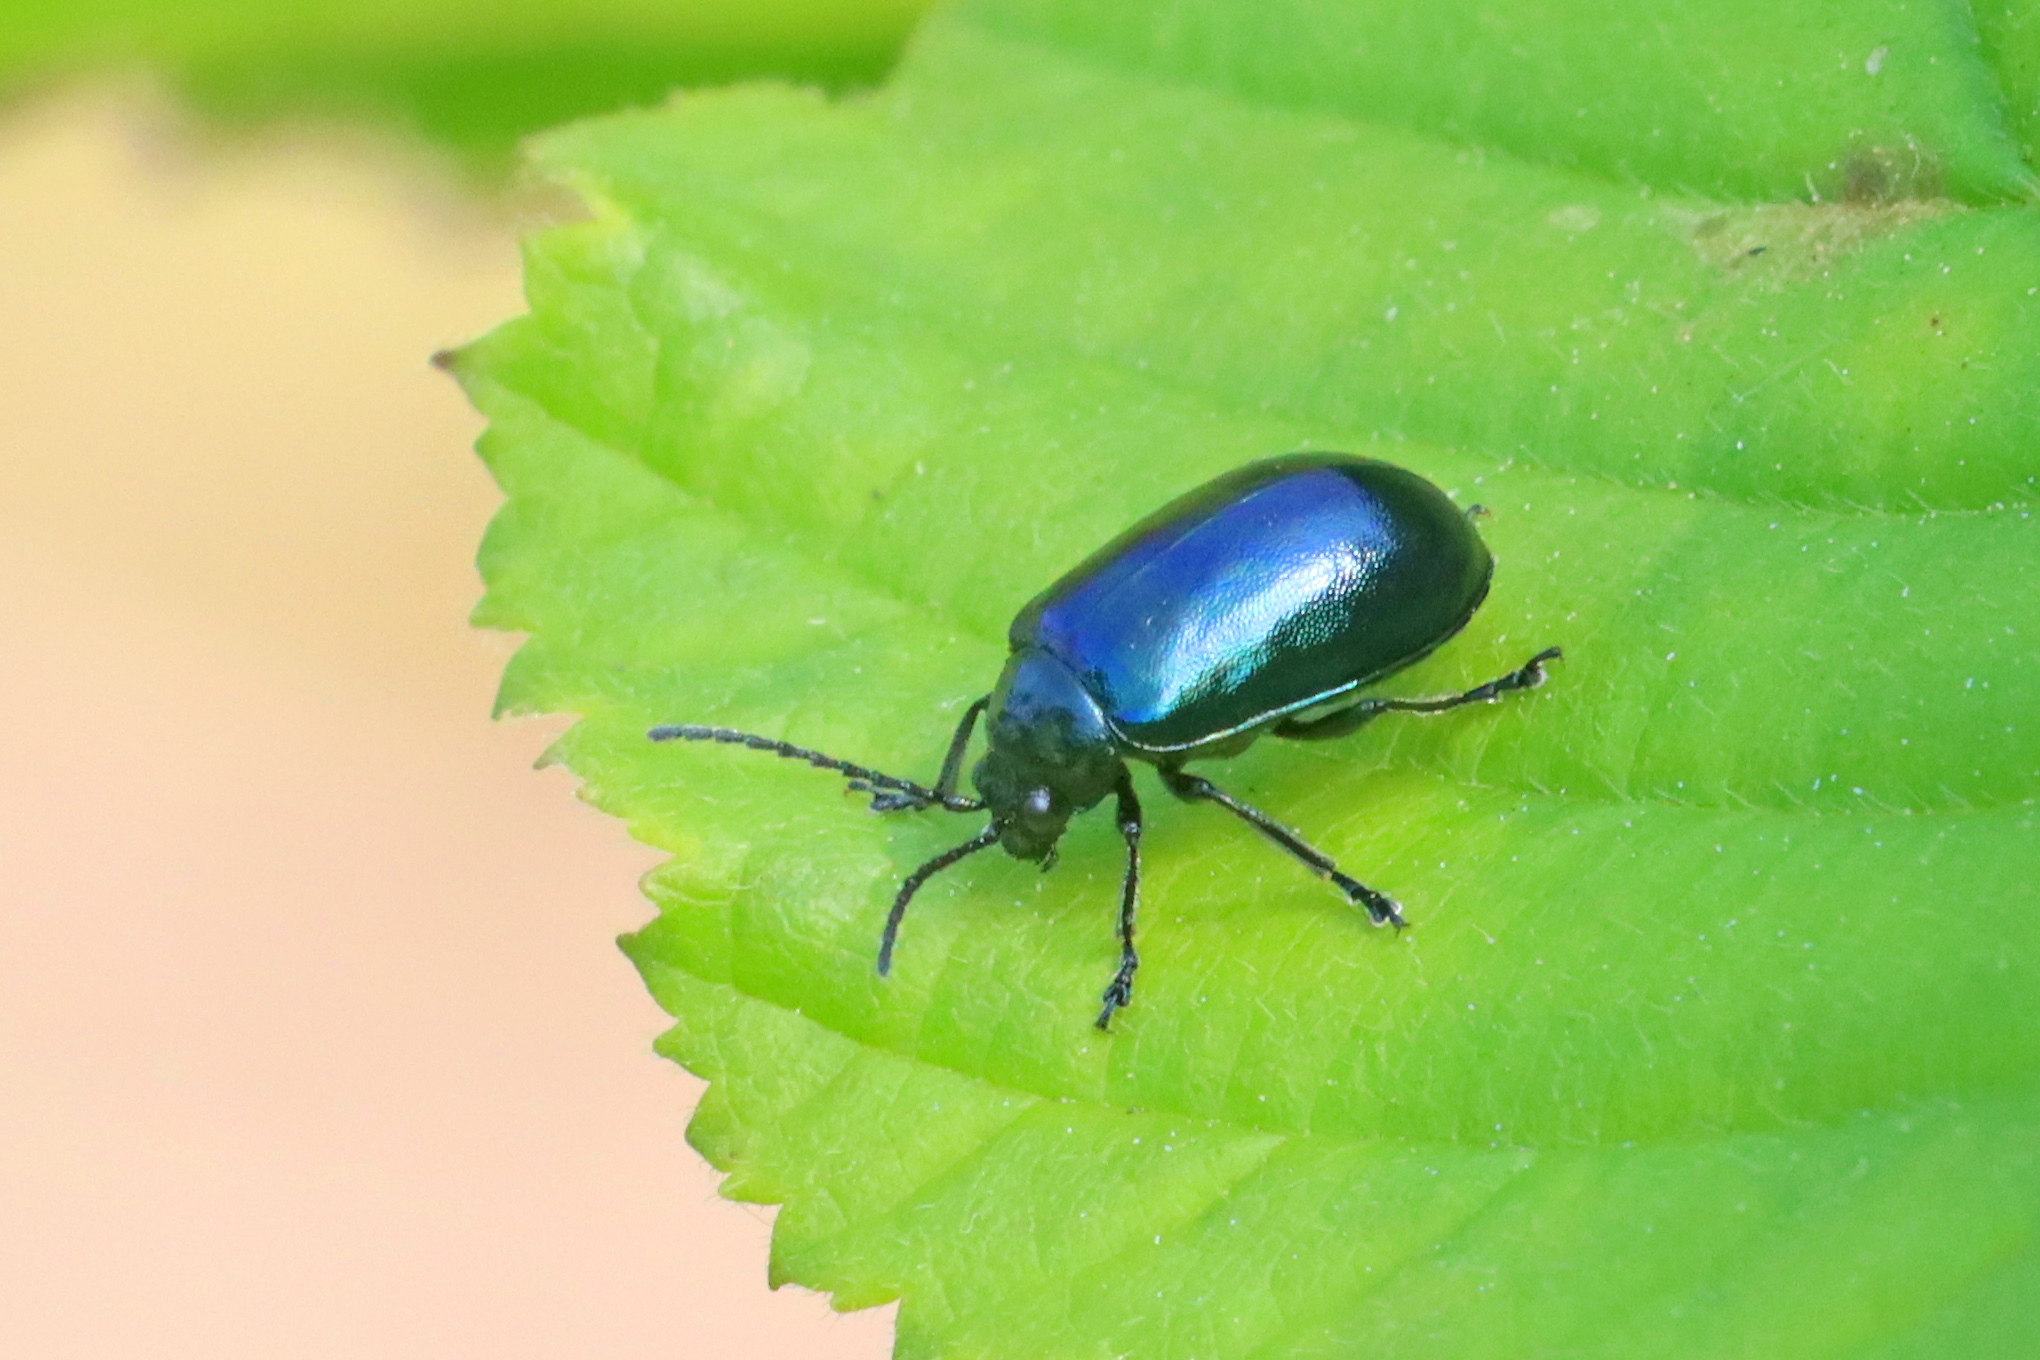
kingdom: Animalia
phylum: Arthropoda
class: Insecta
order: Coleoptera
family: Chrysomelidae
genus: Agelastica
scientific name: Agelastica alni
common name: Alder leaf beetle
